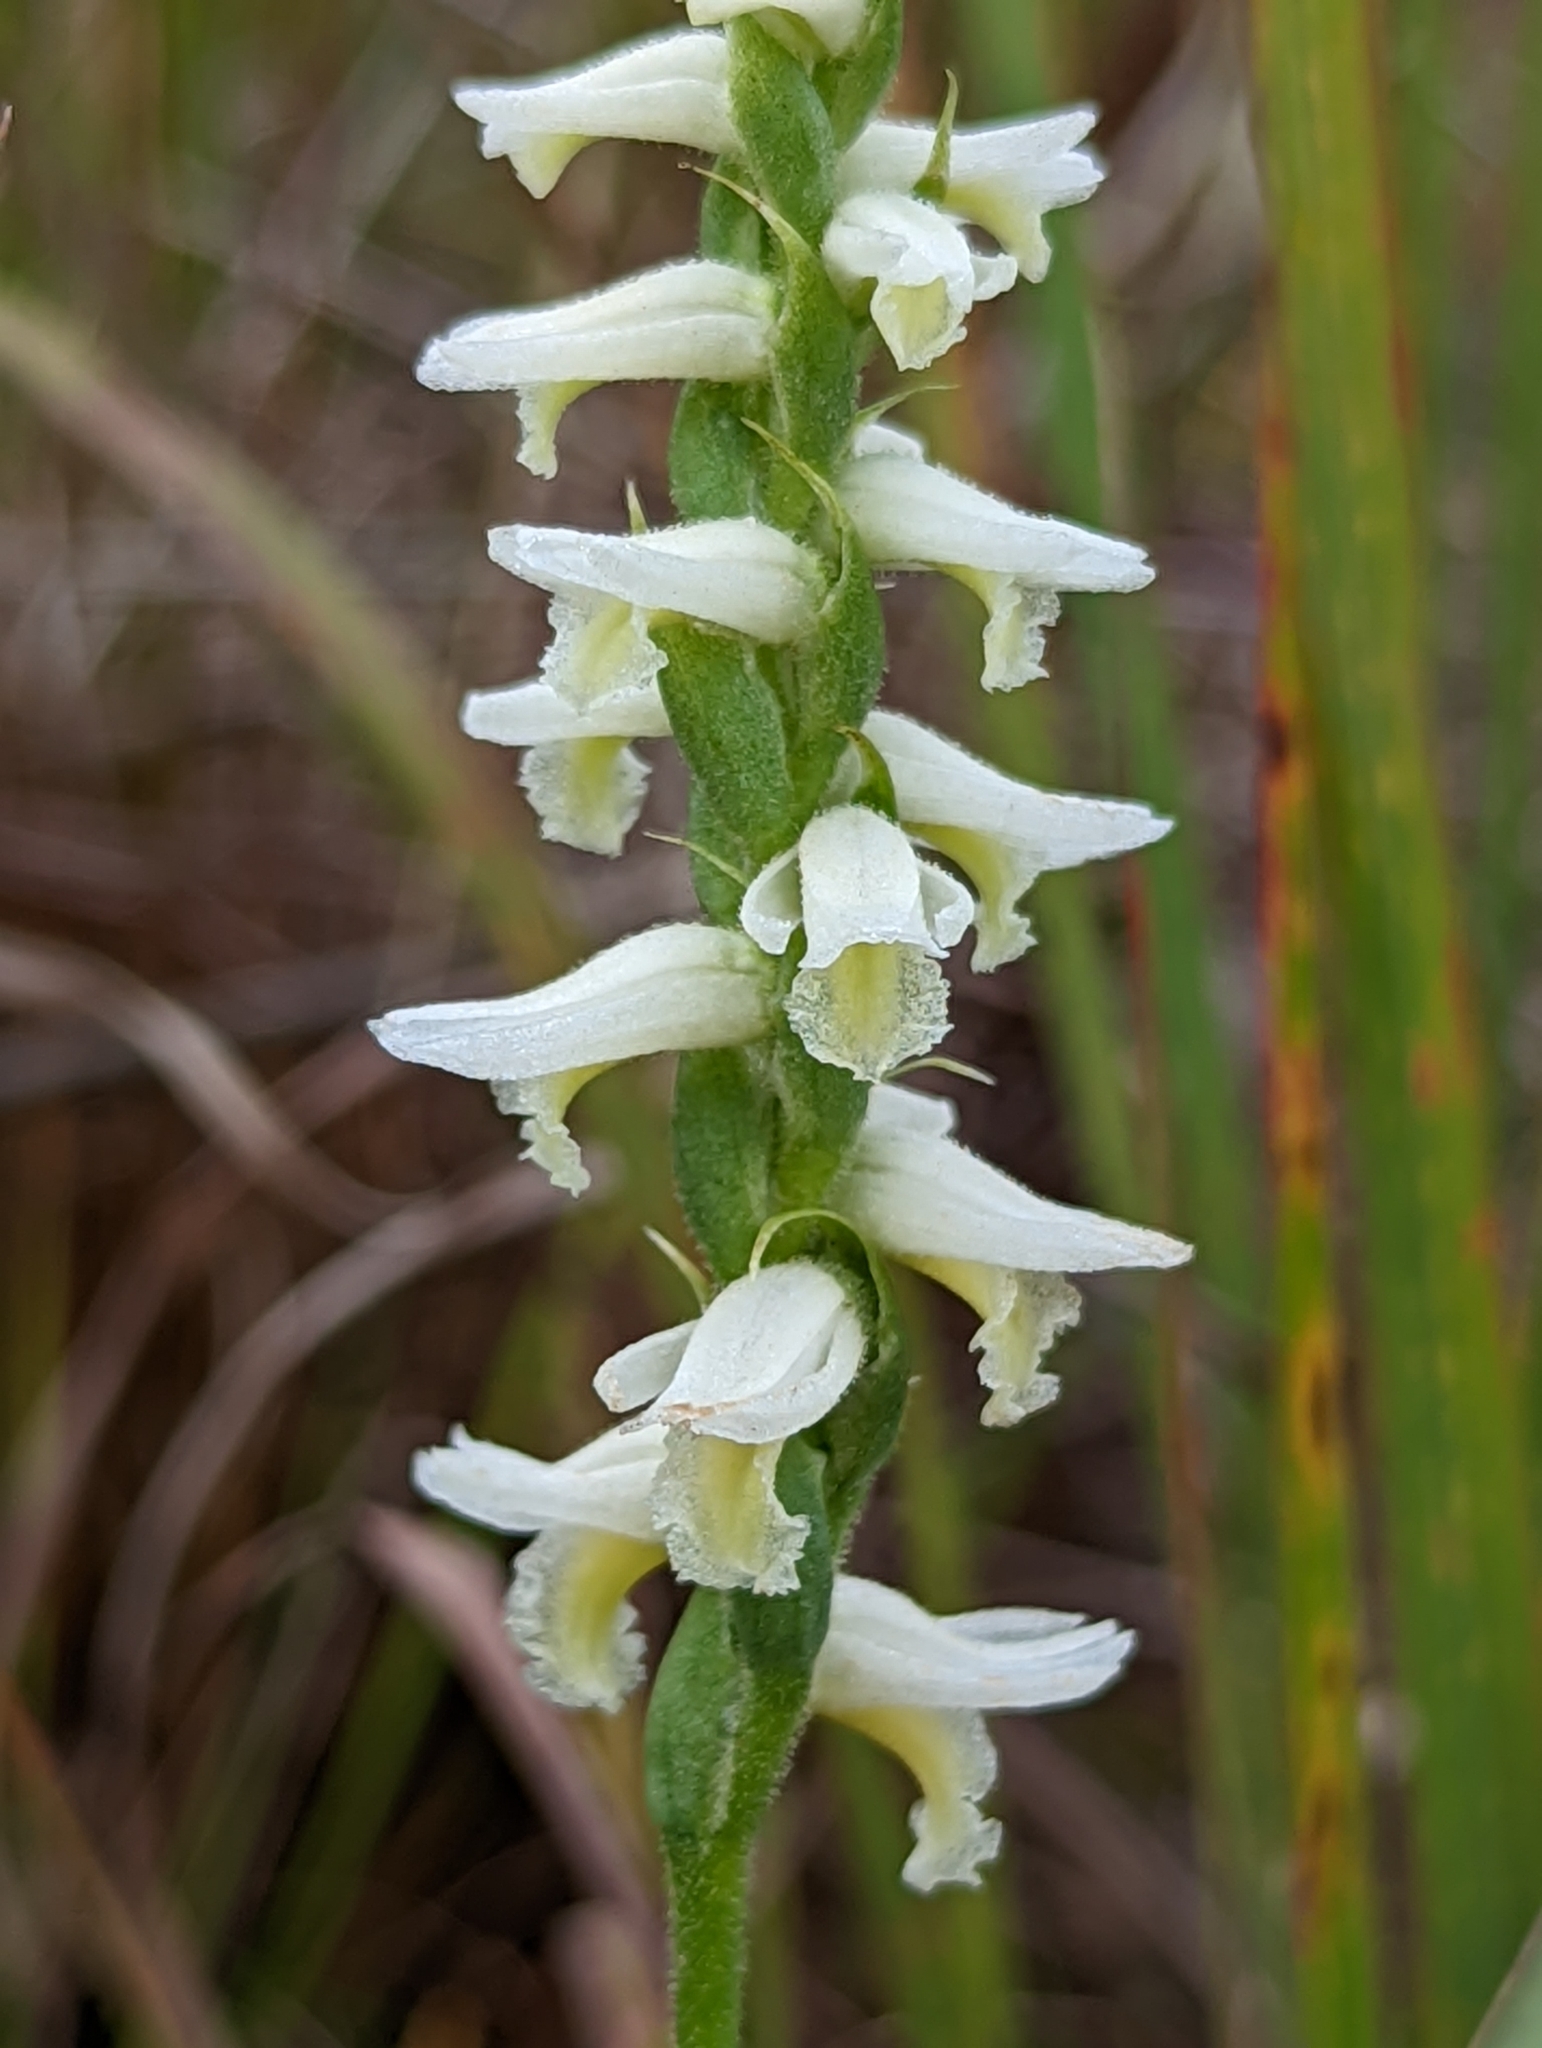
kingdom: Plantae
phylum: Tracheophyta
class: Liliopsida
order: Asparagales
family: Orchidaceae
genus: Spiranthes
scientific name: Spiranthes magnicamporum
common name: Great plains ladies'-tresses
